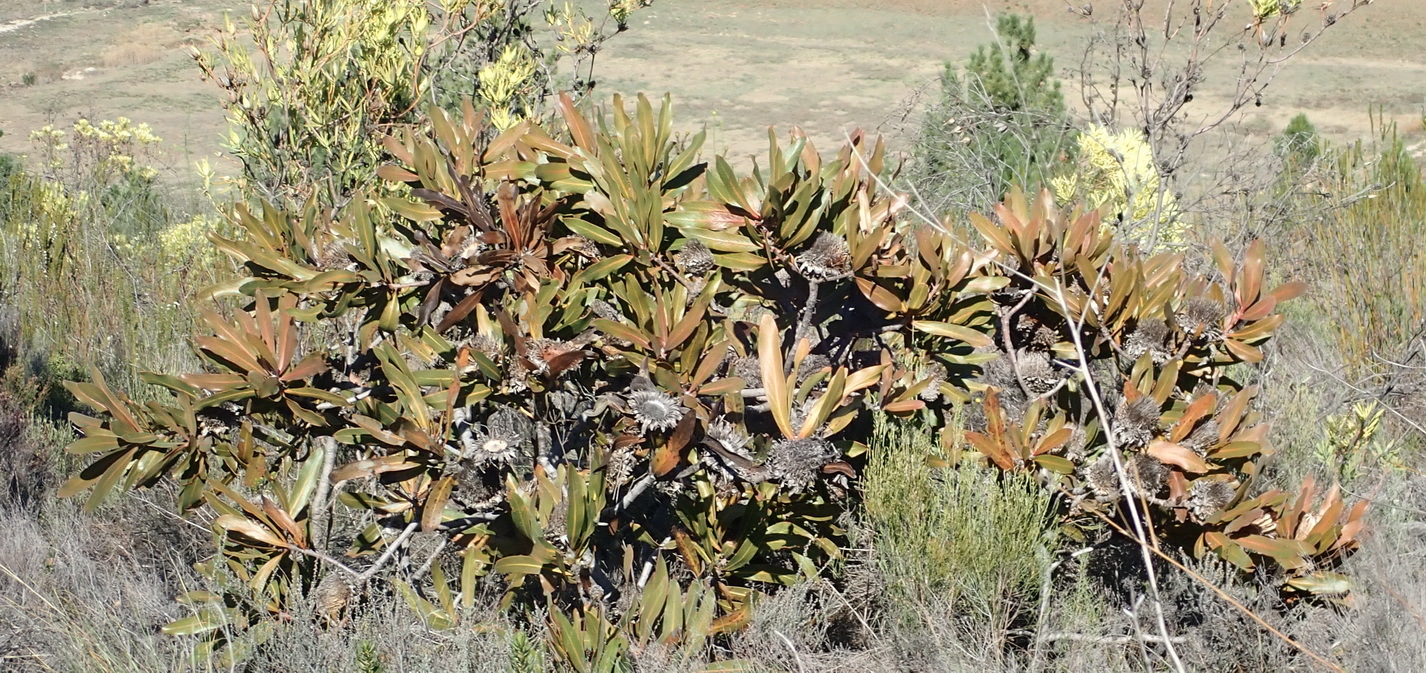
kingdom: Plantae
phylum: Tracheophyta
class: Magnoliopsida
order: Proteales
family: Proteaceae
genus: Protea
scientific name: Protea lorifolia
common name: Strap-leaved protea
